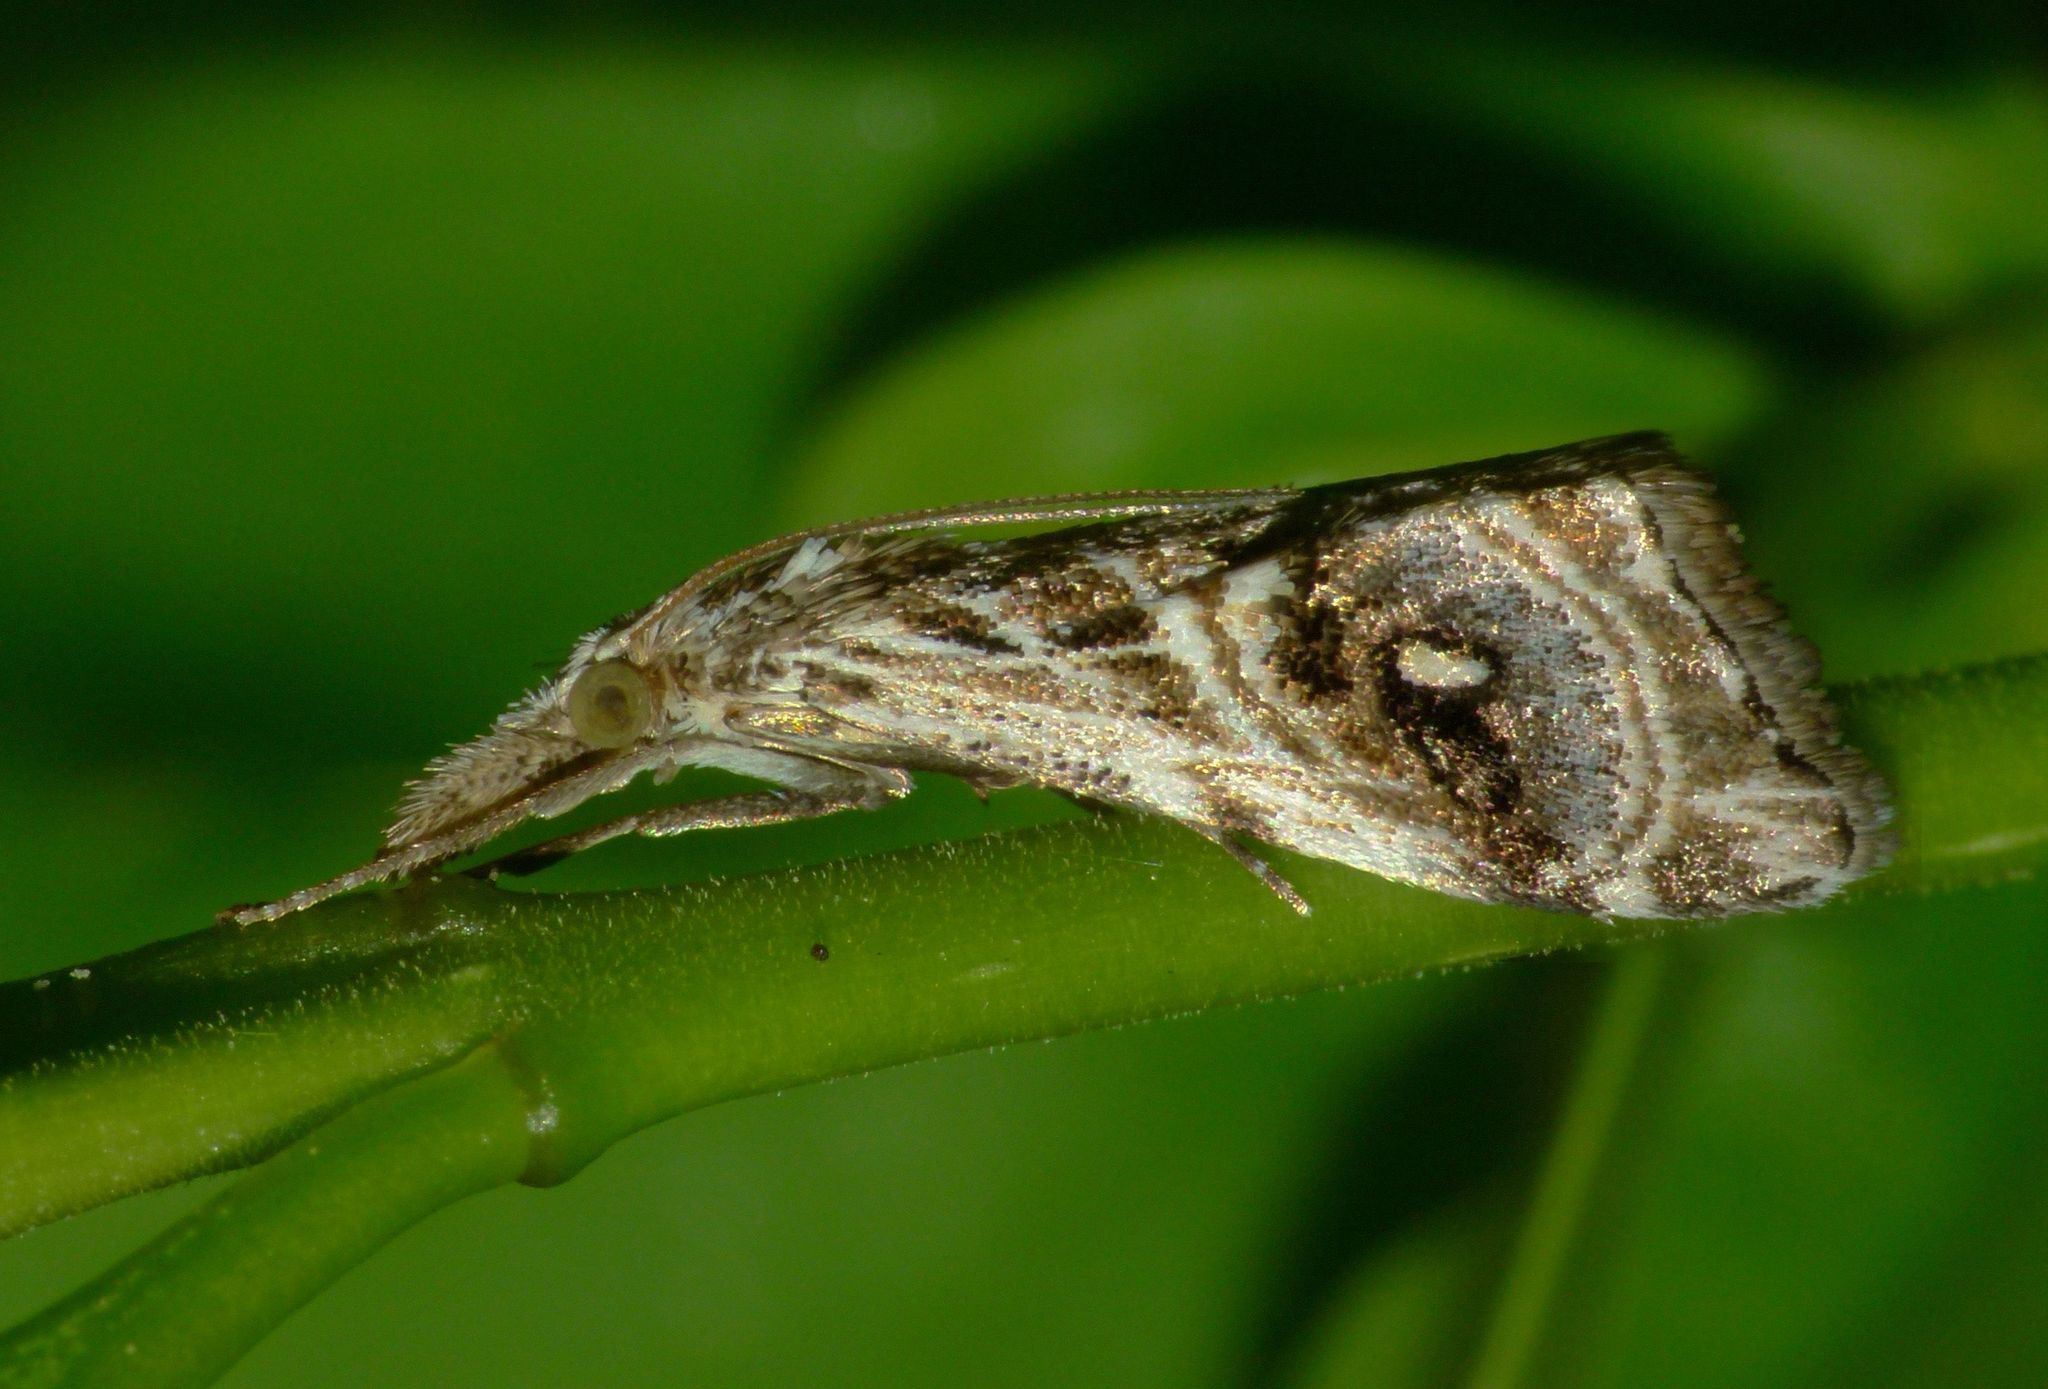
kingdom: Animalia
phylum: Arthropoda
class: Insecta
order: Lepidoptera
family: Crambidae
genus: Gadira
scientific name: Gadira acerella
